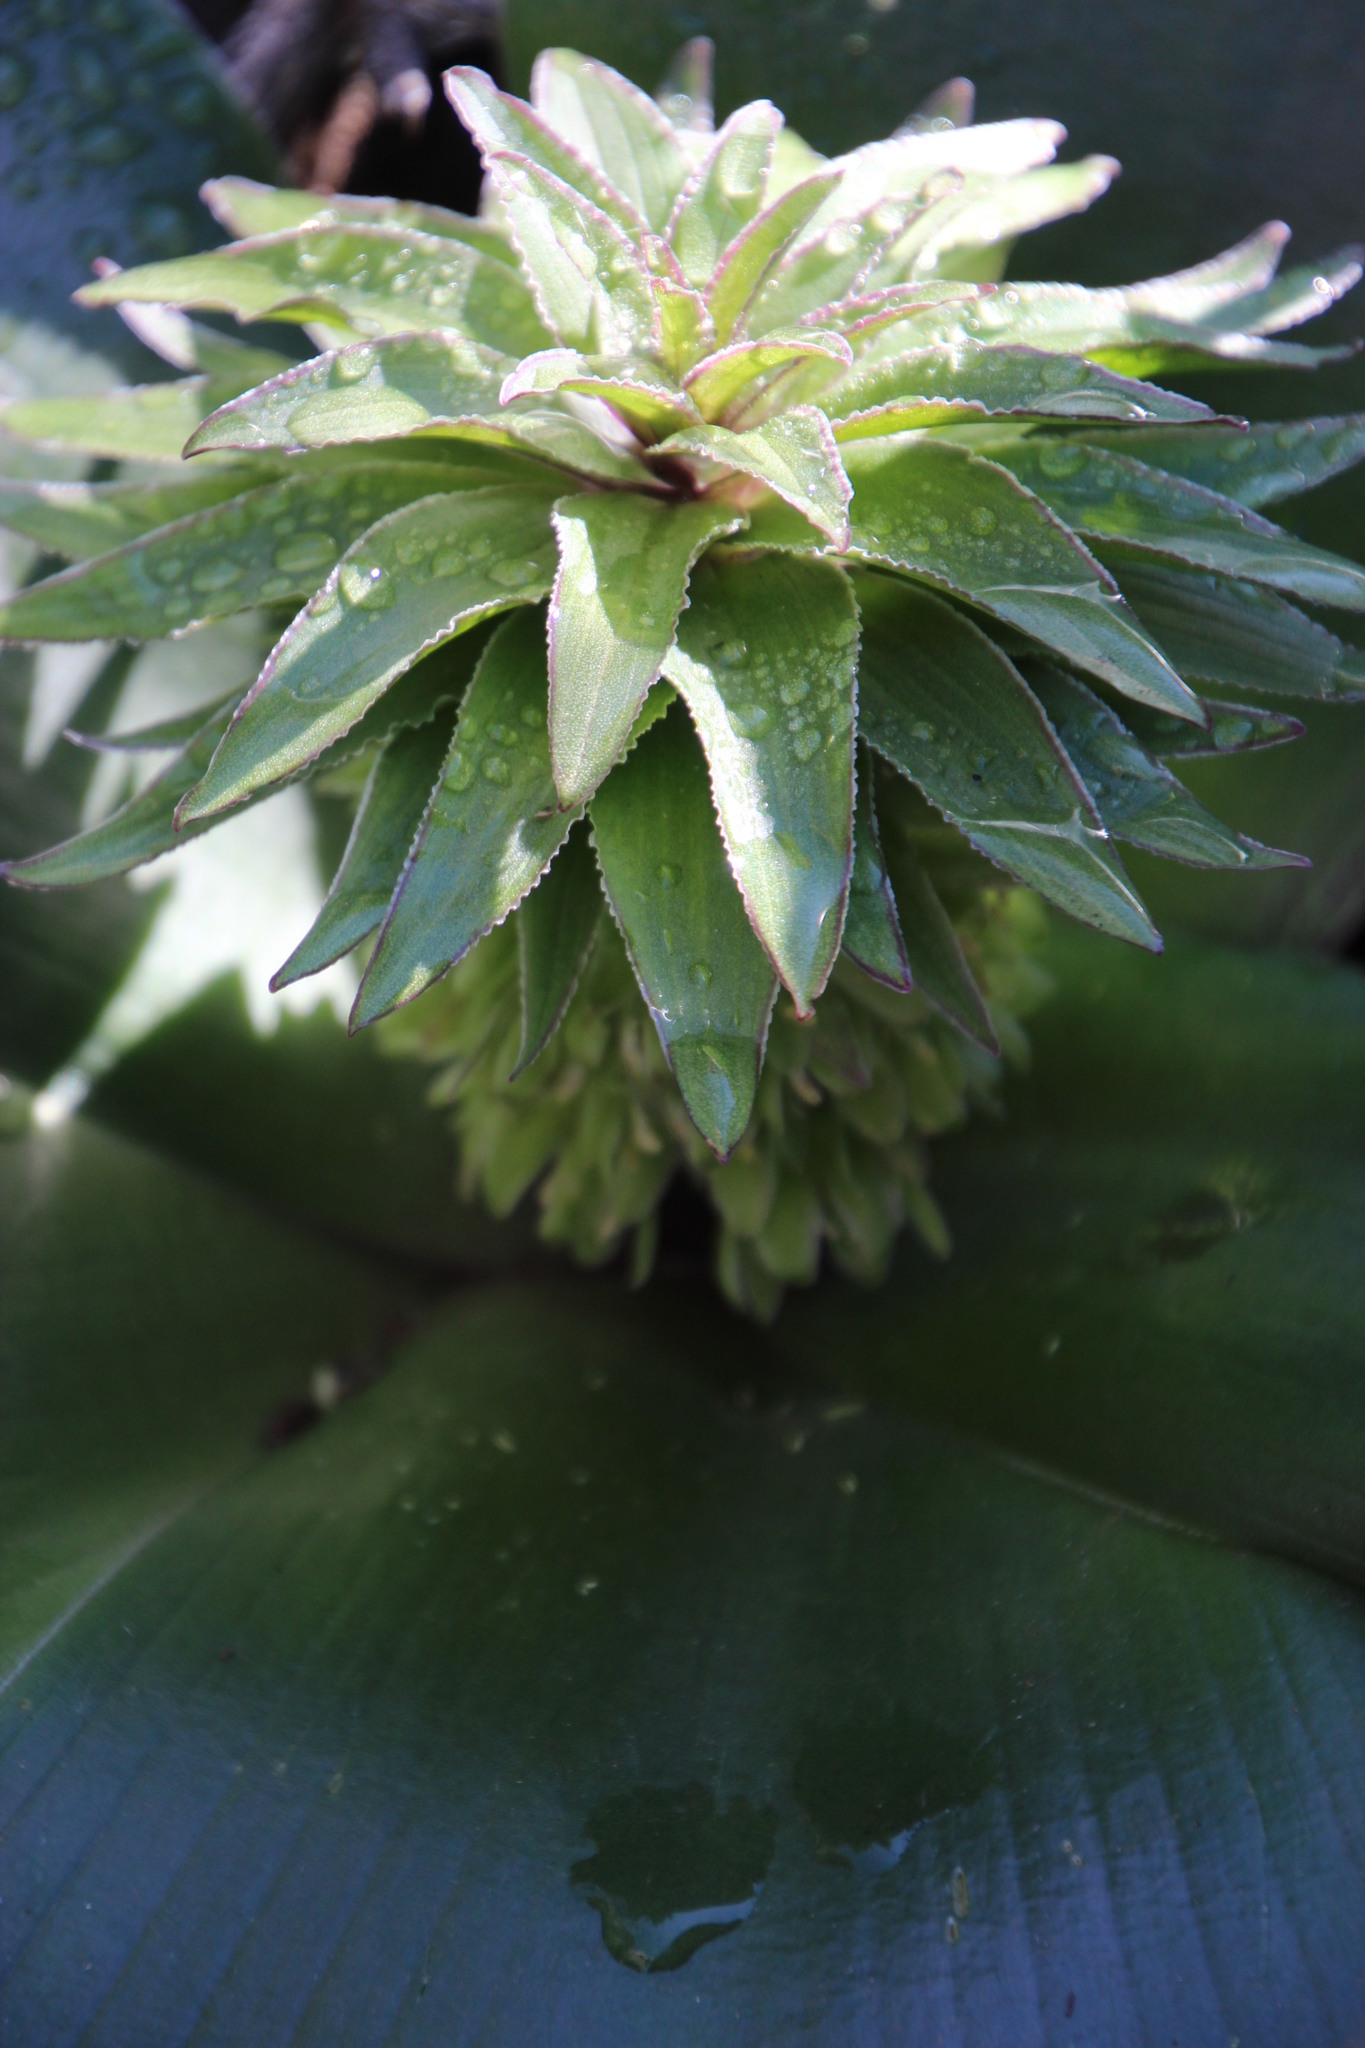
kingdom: Plantae
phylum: Tracheophyta
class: Liliopsida
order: Asparagales
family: Asparagaceae
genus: Eucomis
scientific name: Eucomis regia
